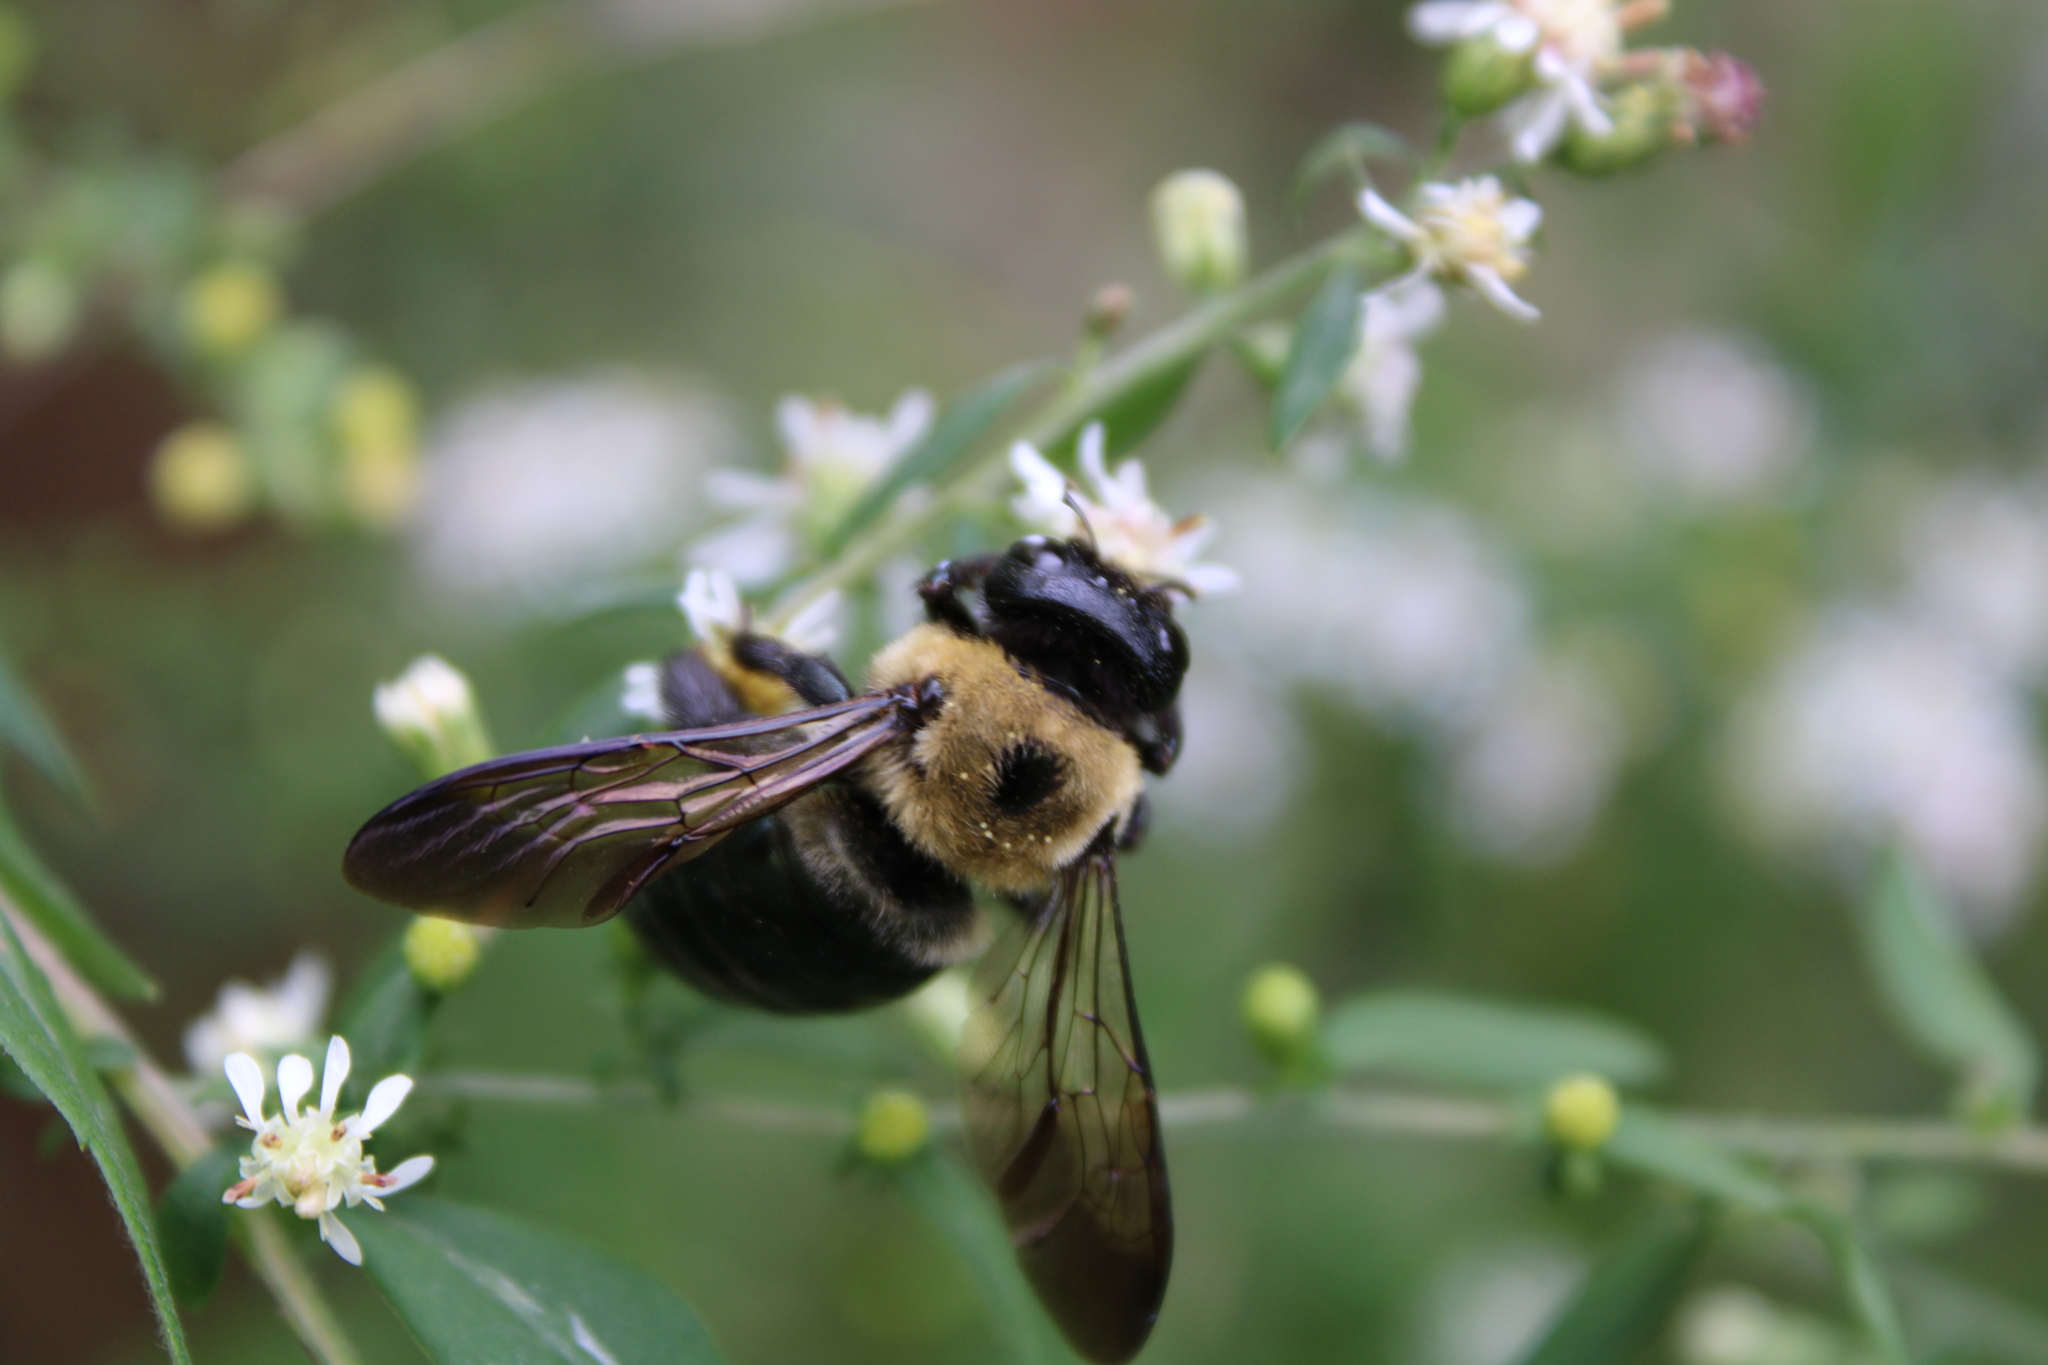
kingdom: Animalia
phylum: Arthropoda
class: Insecta
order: Hymenoptera
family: Apidae
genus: Xylocopa
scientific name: Xylocopa virginica
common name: Carpenter bee
